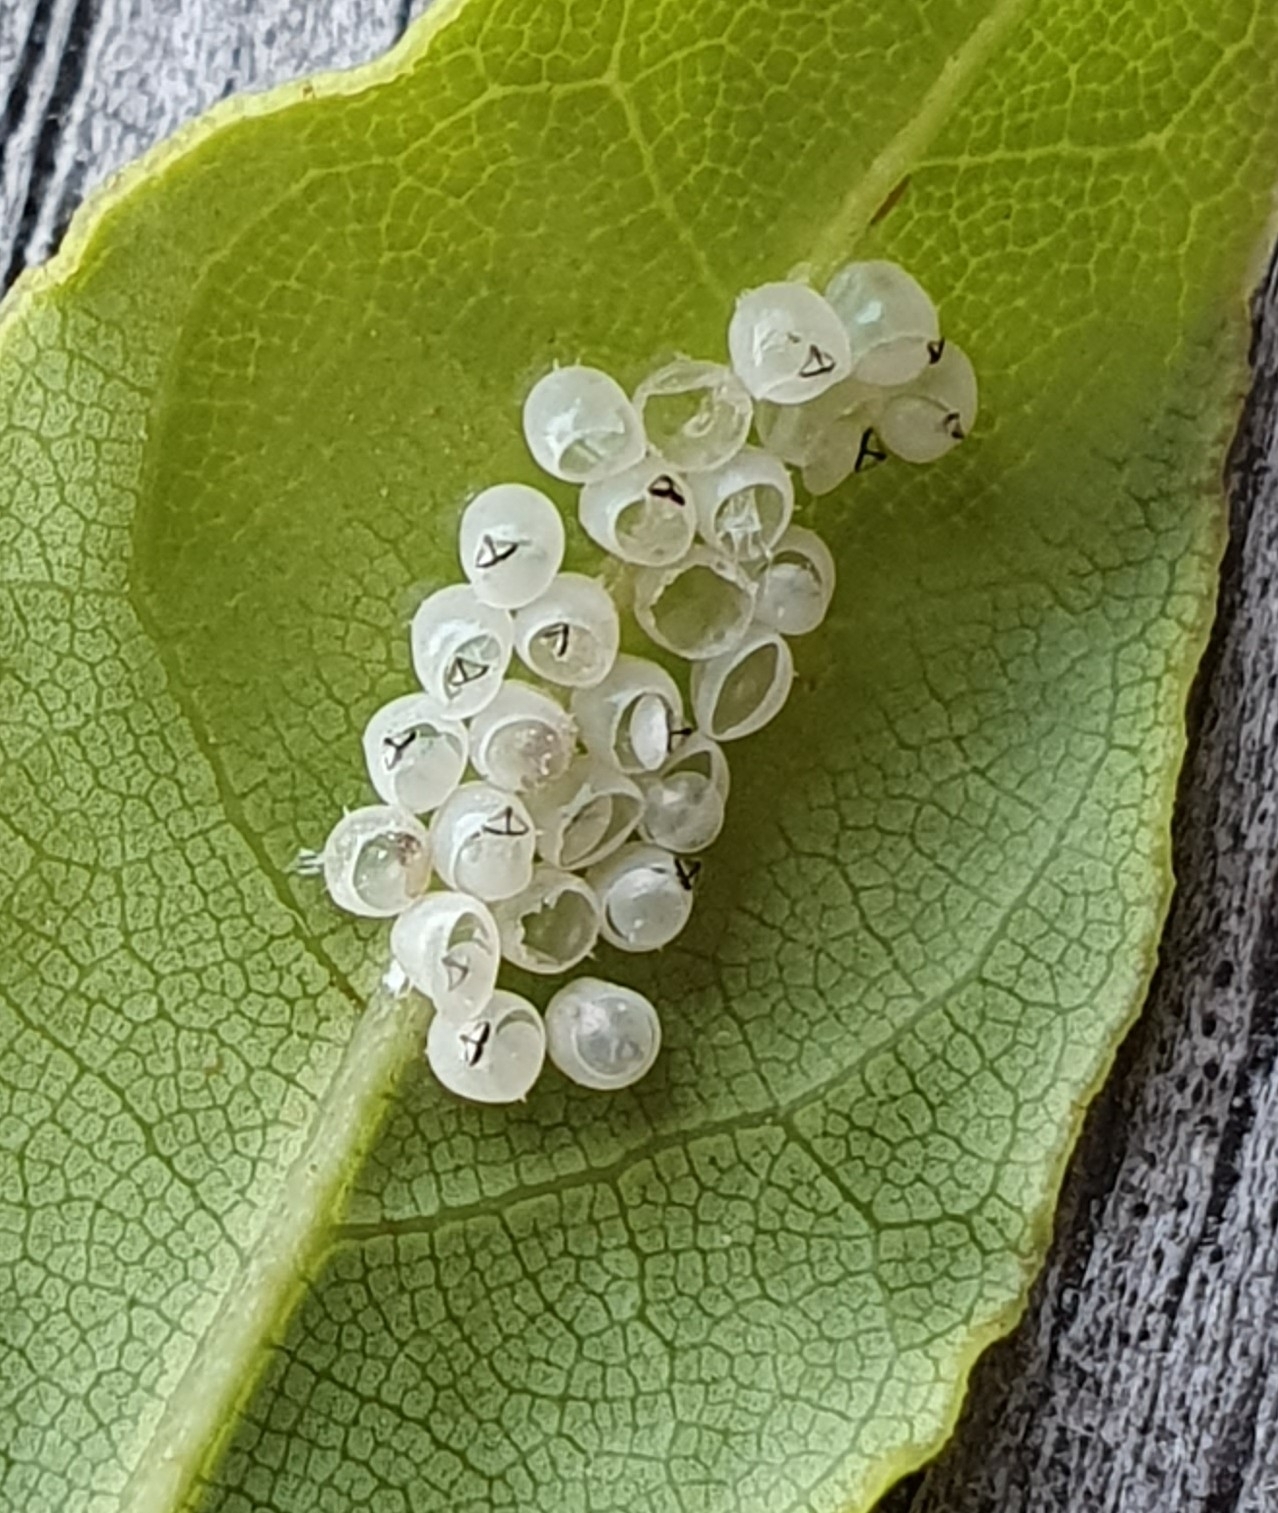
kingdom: Animalia
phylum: Arthropoda
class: Insecta
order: Hemiptera
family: Pentatomidae
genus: Halyomorpha
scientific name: Halyomorpha halys
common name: Brown marmorated stink bug
